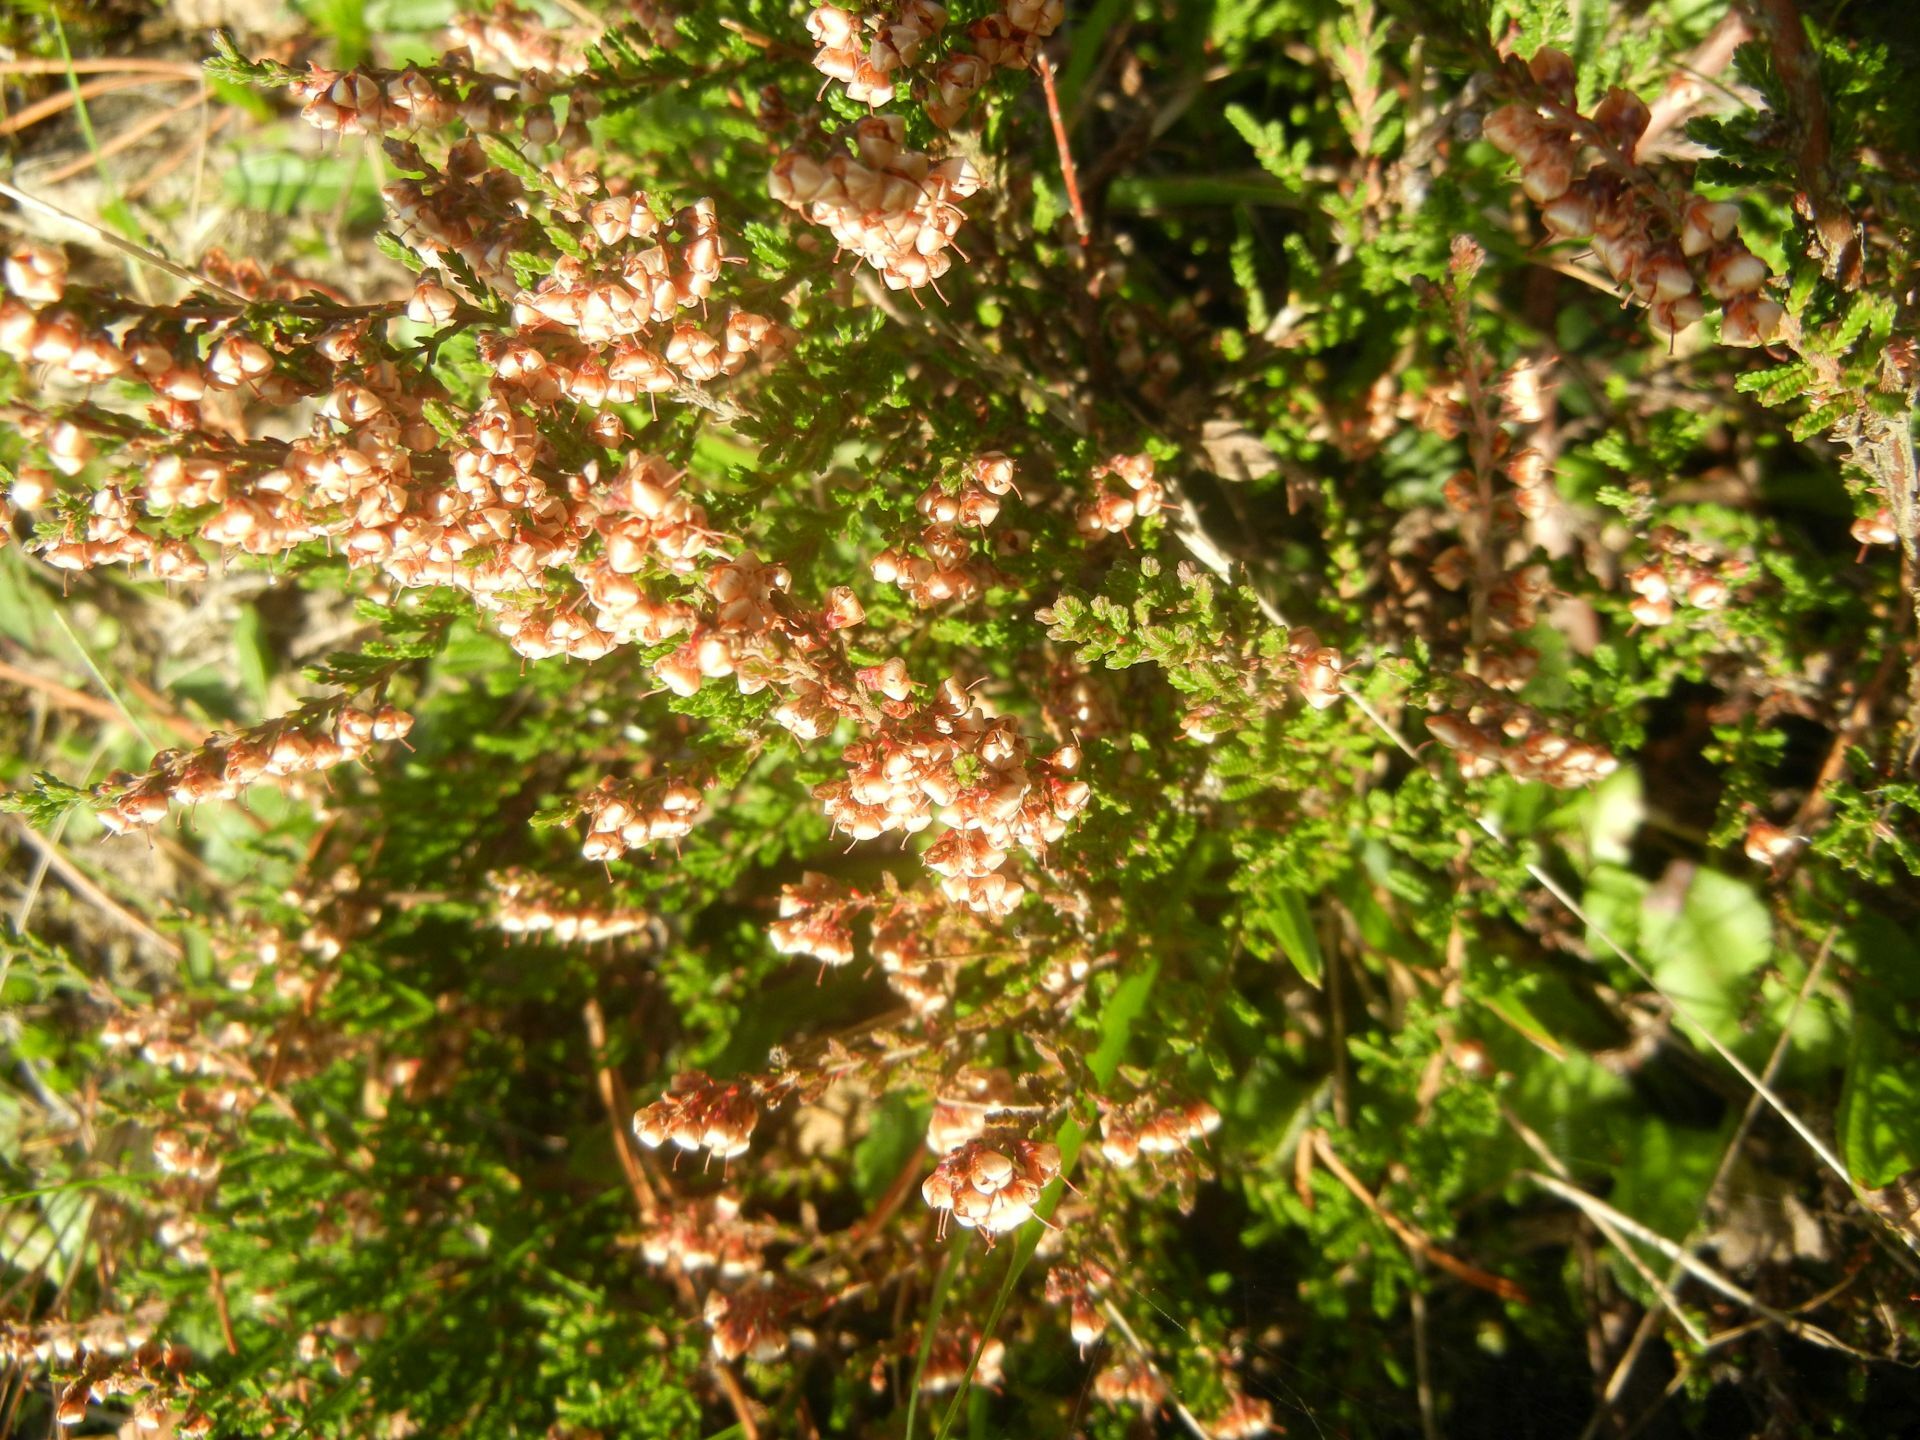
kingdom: Plantae
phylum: Tracheophyta
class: Magnoliopsida
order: Ericales
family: Ericaceae
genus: Calluna
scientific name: Calluna vulgaris
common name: Heather
